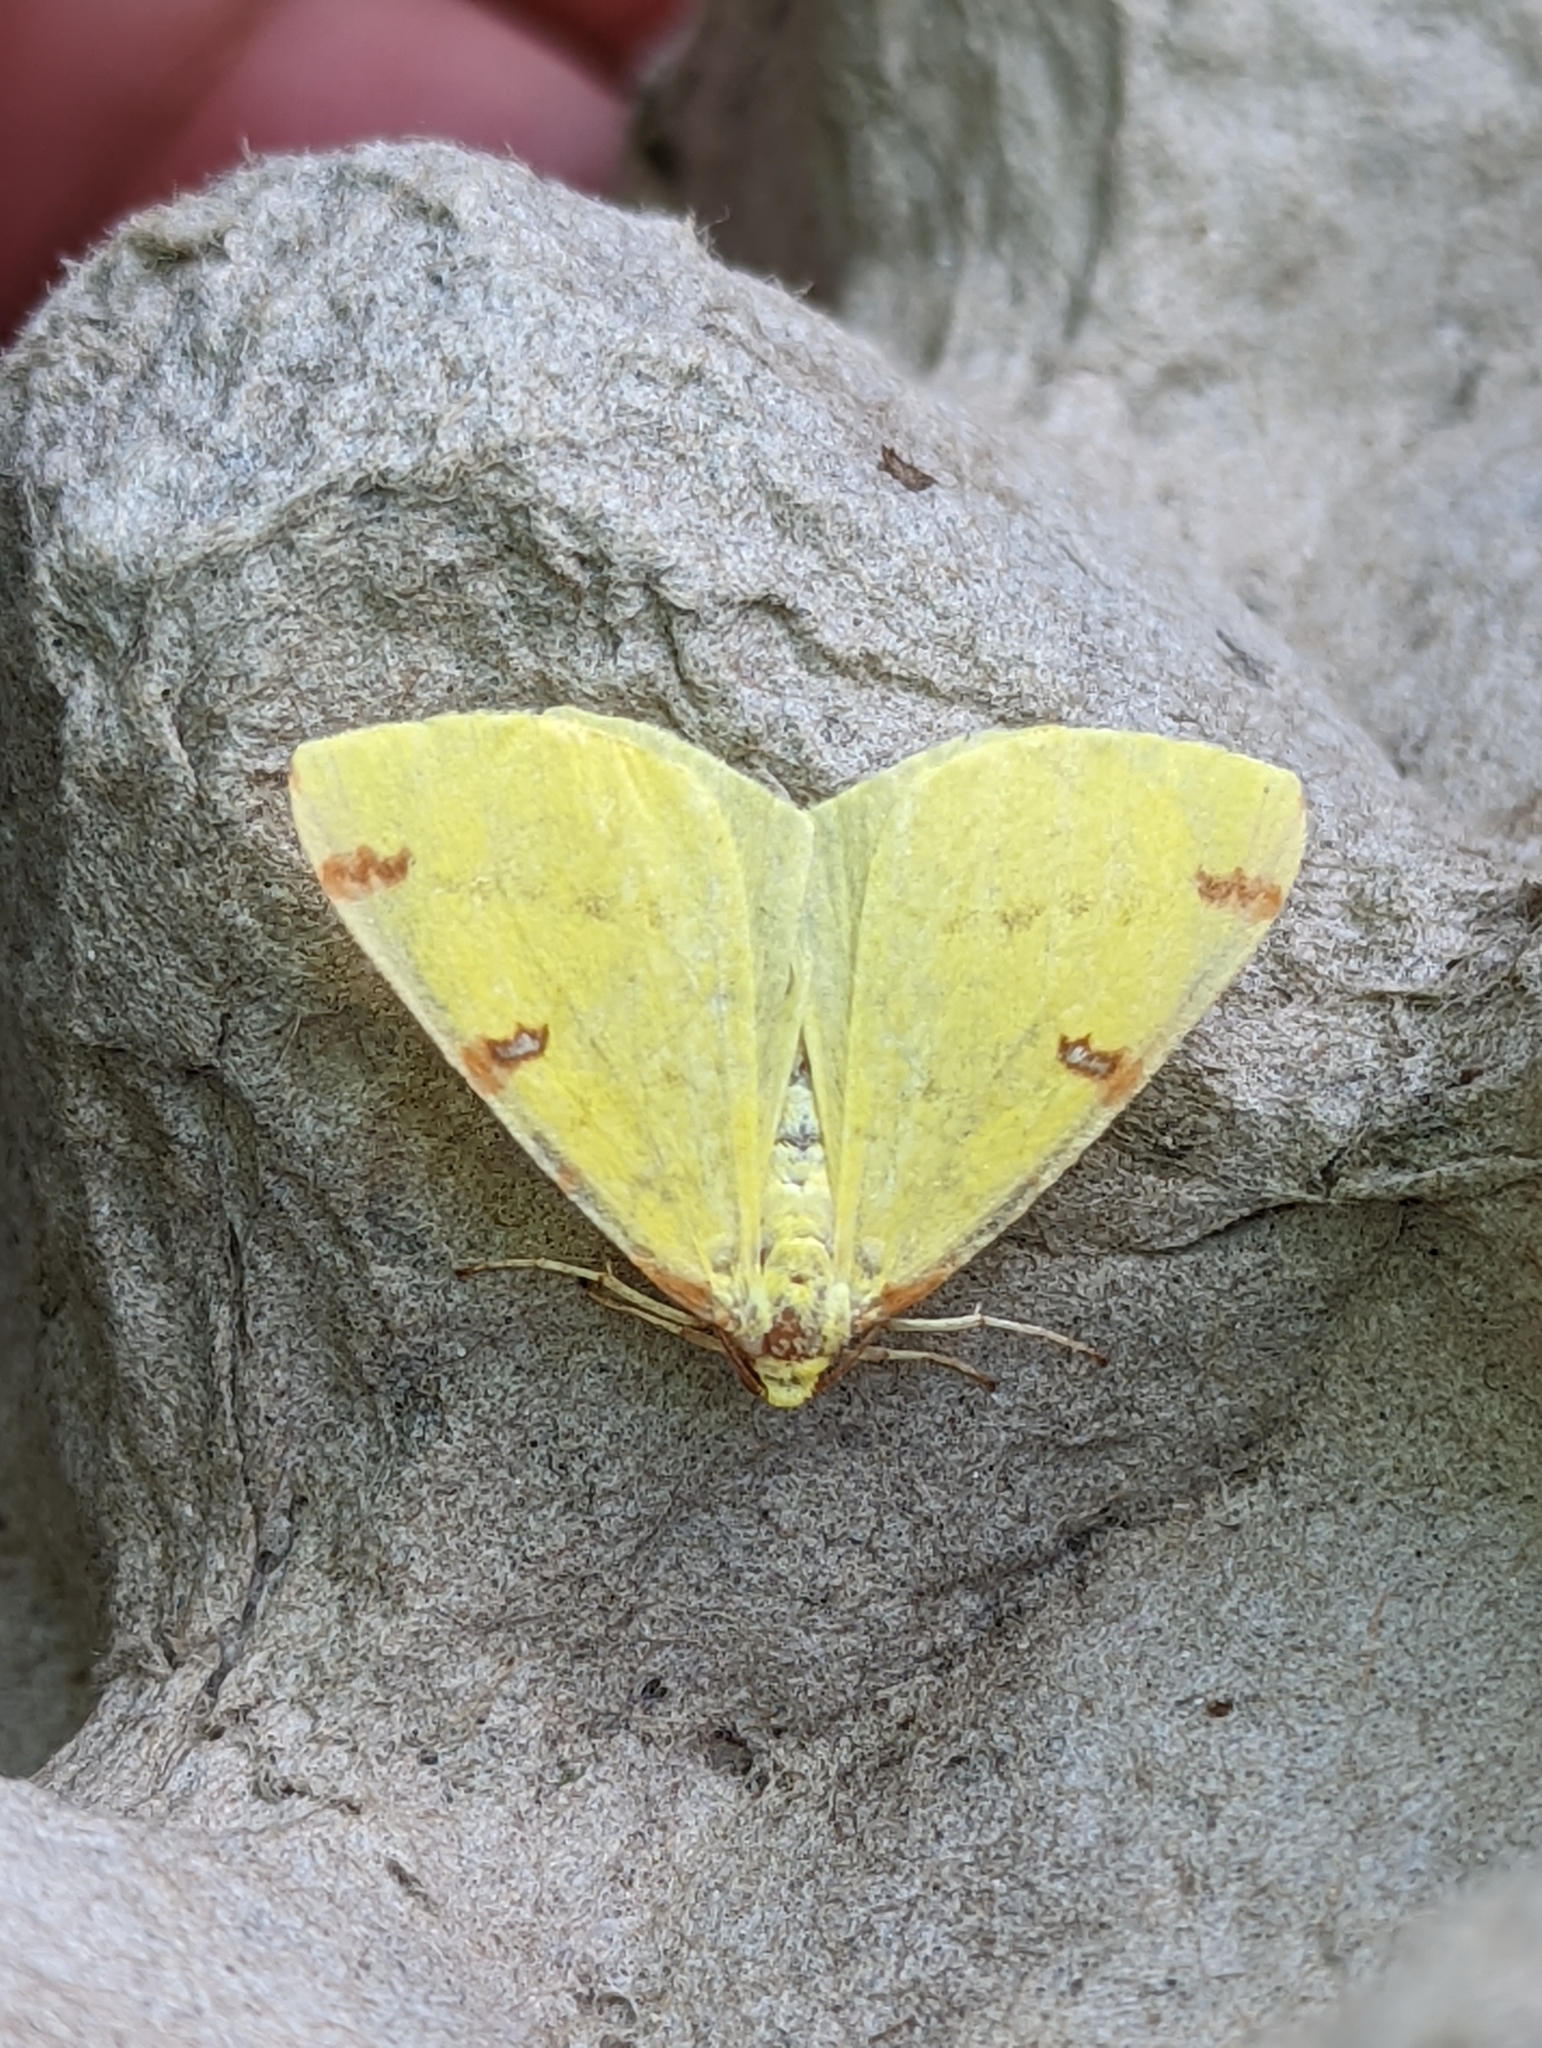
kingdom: Animalia
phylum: Arthropoda
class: Insecta
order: Lepidoptera
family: Geometridae
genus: Opisthograptis
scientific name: Opisthograptis luteolata
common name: Brimstone moth
